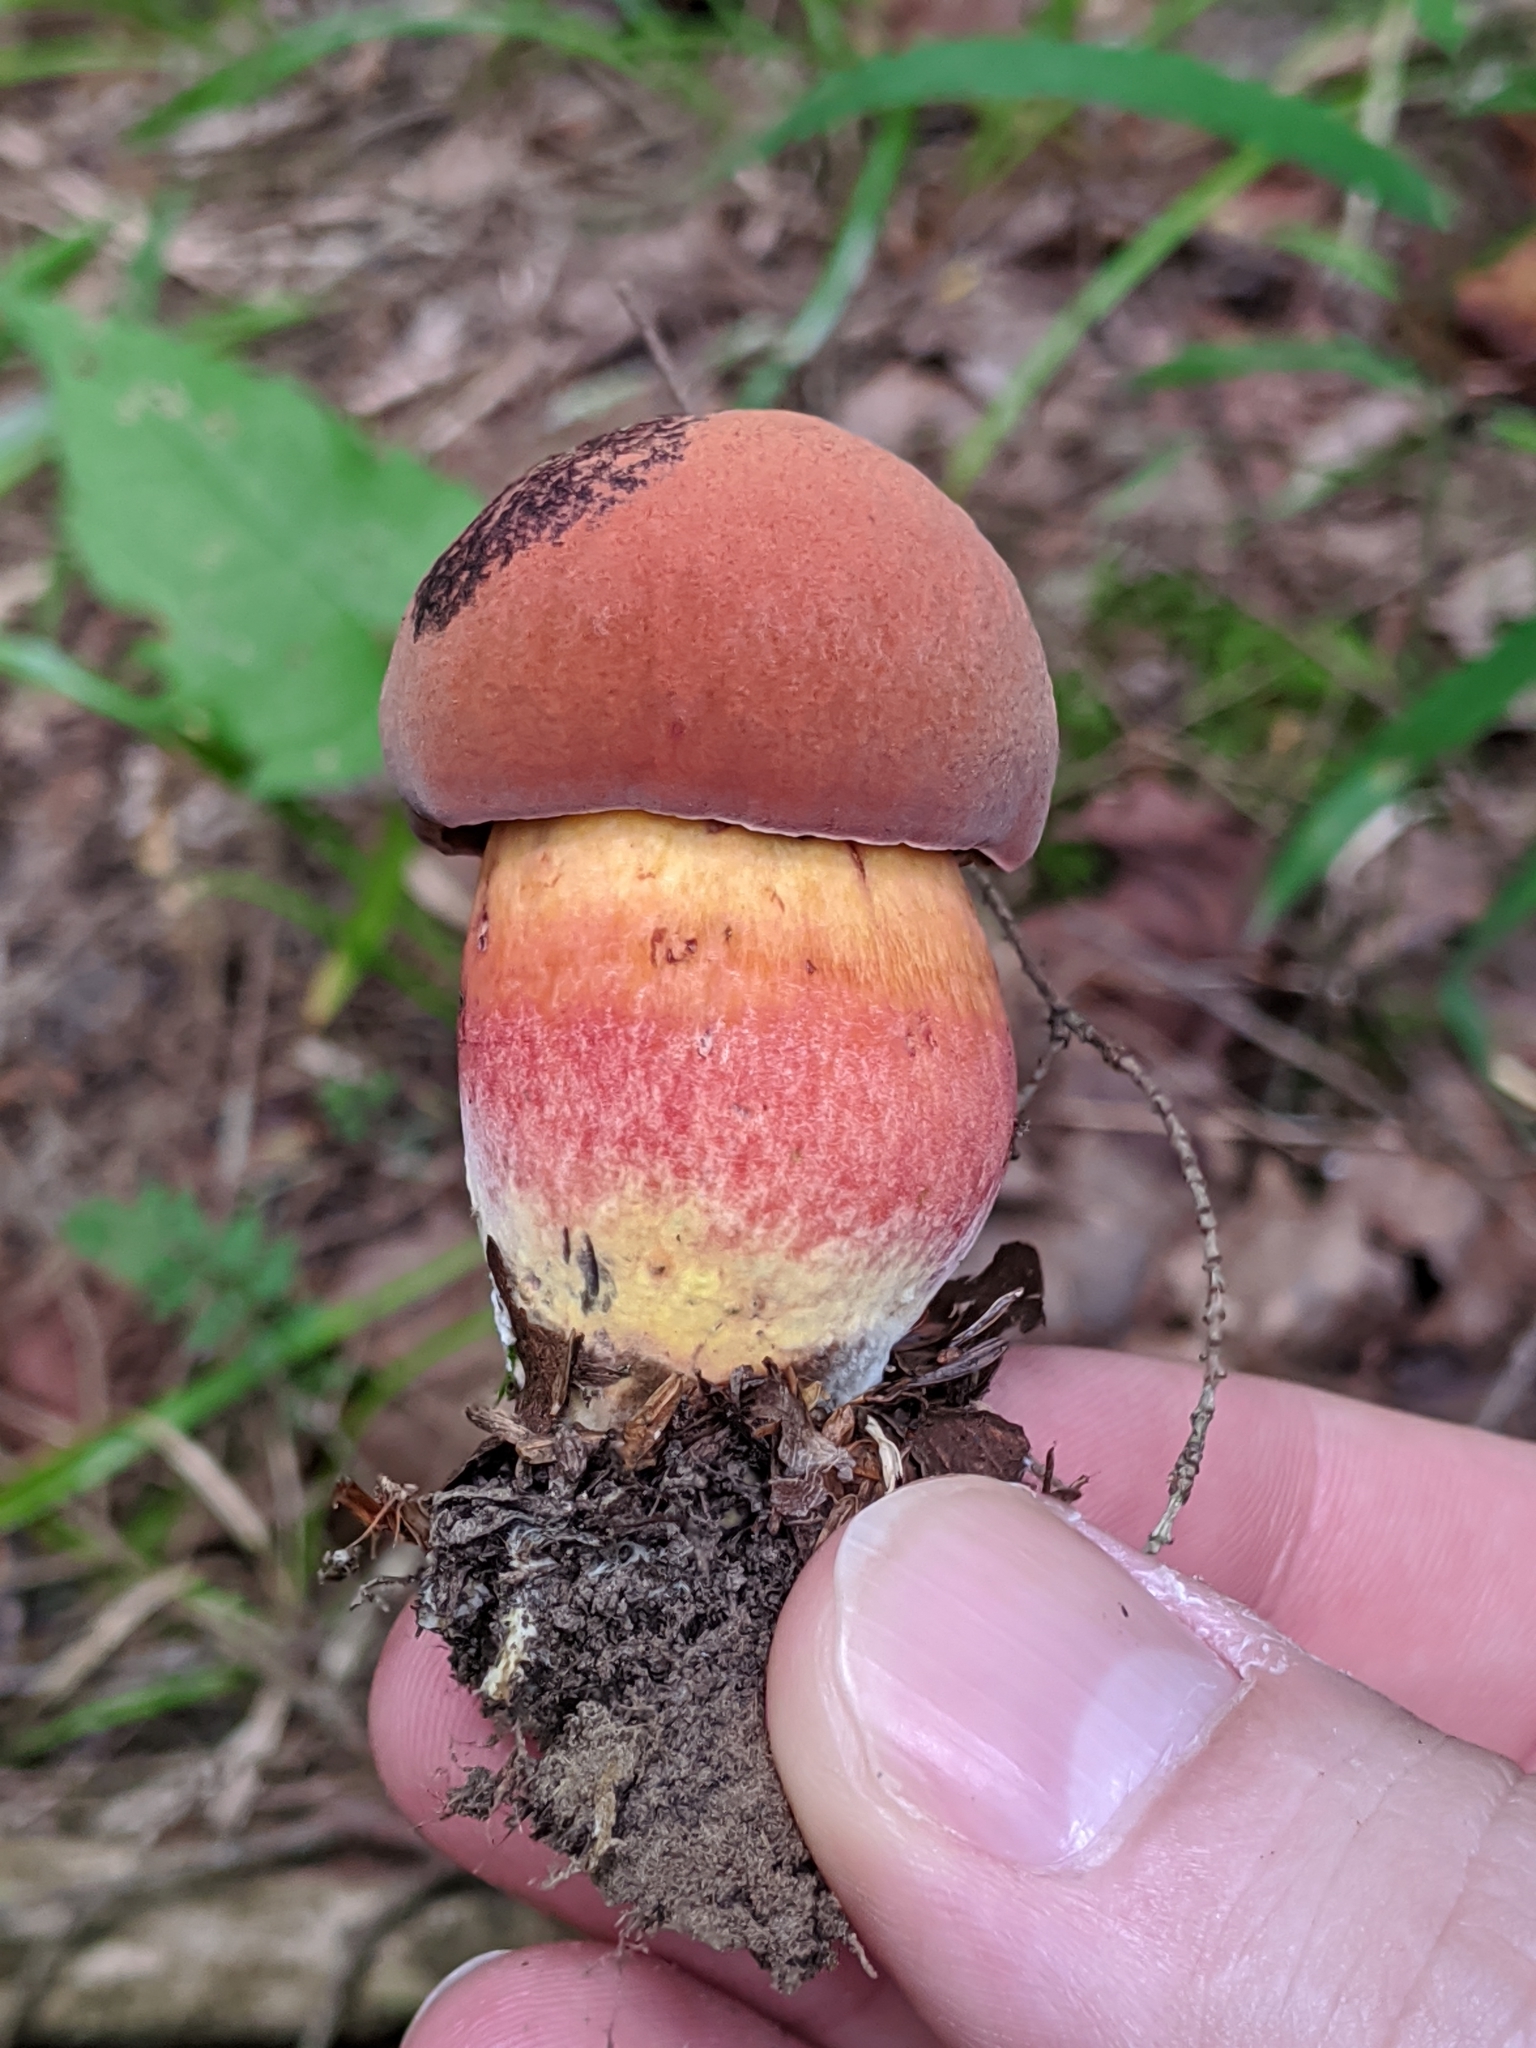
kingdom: Fungi
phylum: Basidiomycota
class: Agaricomycetes
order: Boletales
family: Boletaceae
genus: Boletus
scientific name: Boletus sensibilis
